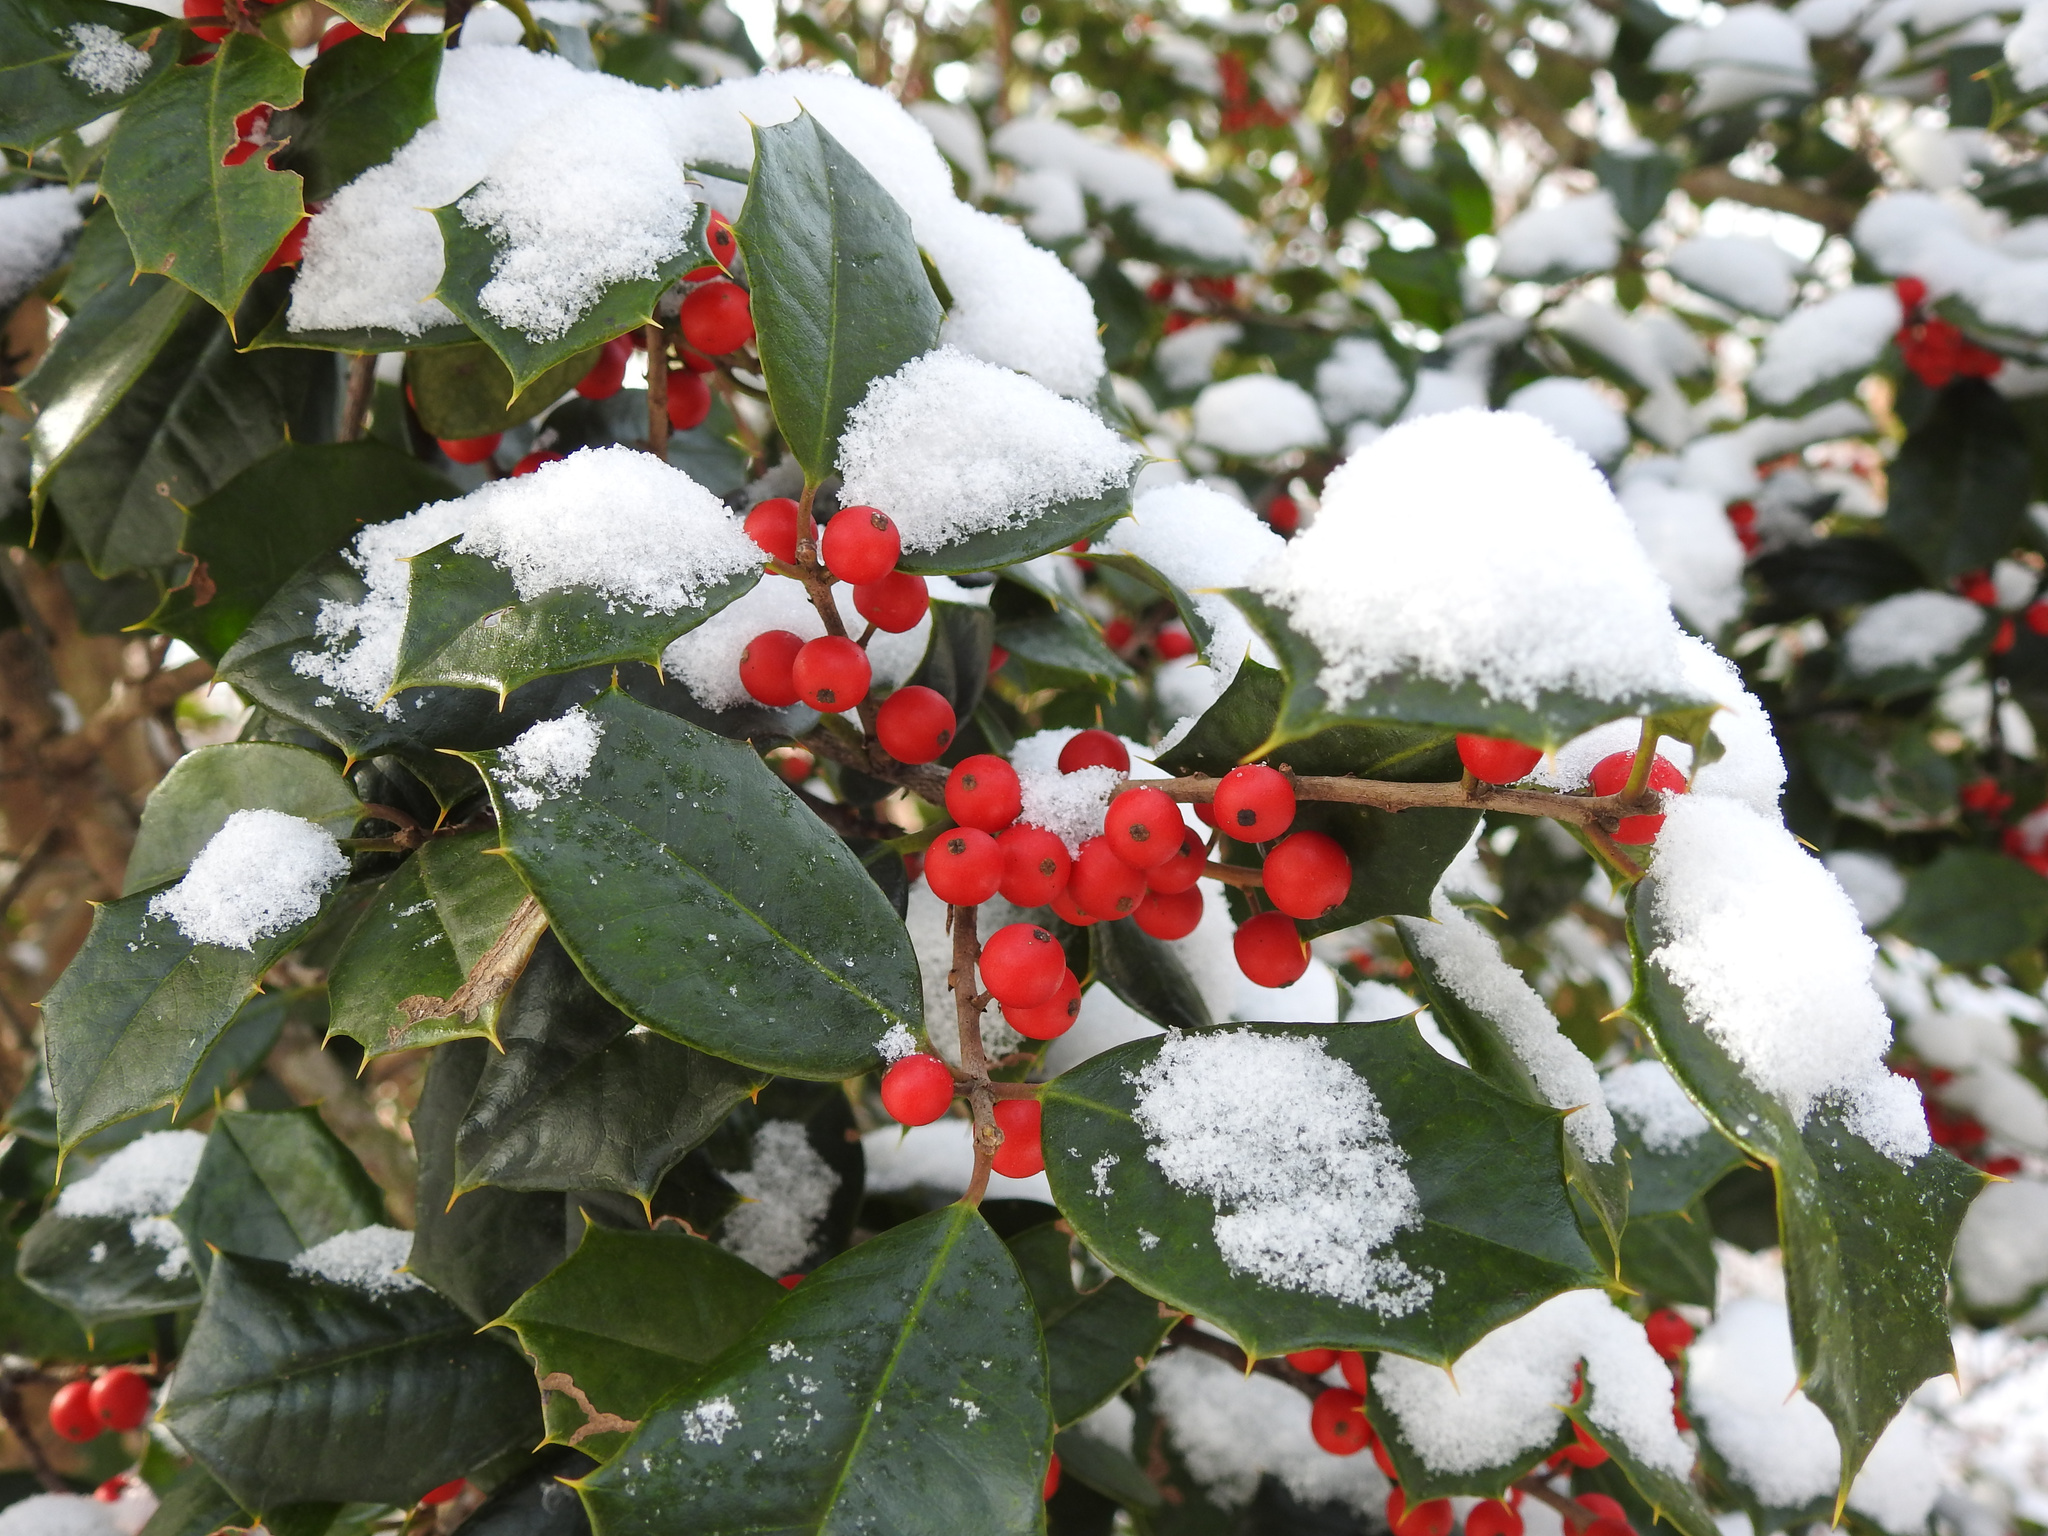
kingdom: Plantae
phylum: Tracheophyta
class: Magnoliopsida
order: Aquifoliales
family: Aquifoliaceae
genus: Ilex
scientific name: Ilex opaca
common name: American holly
